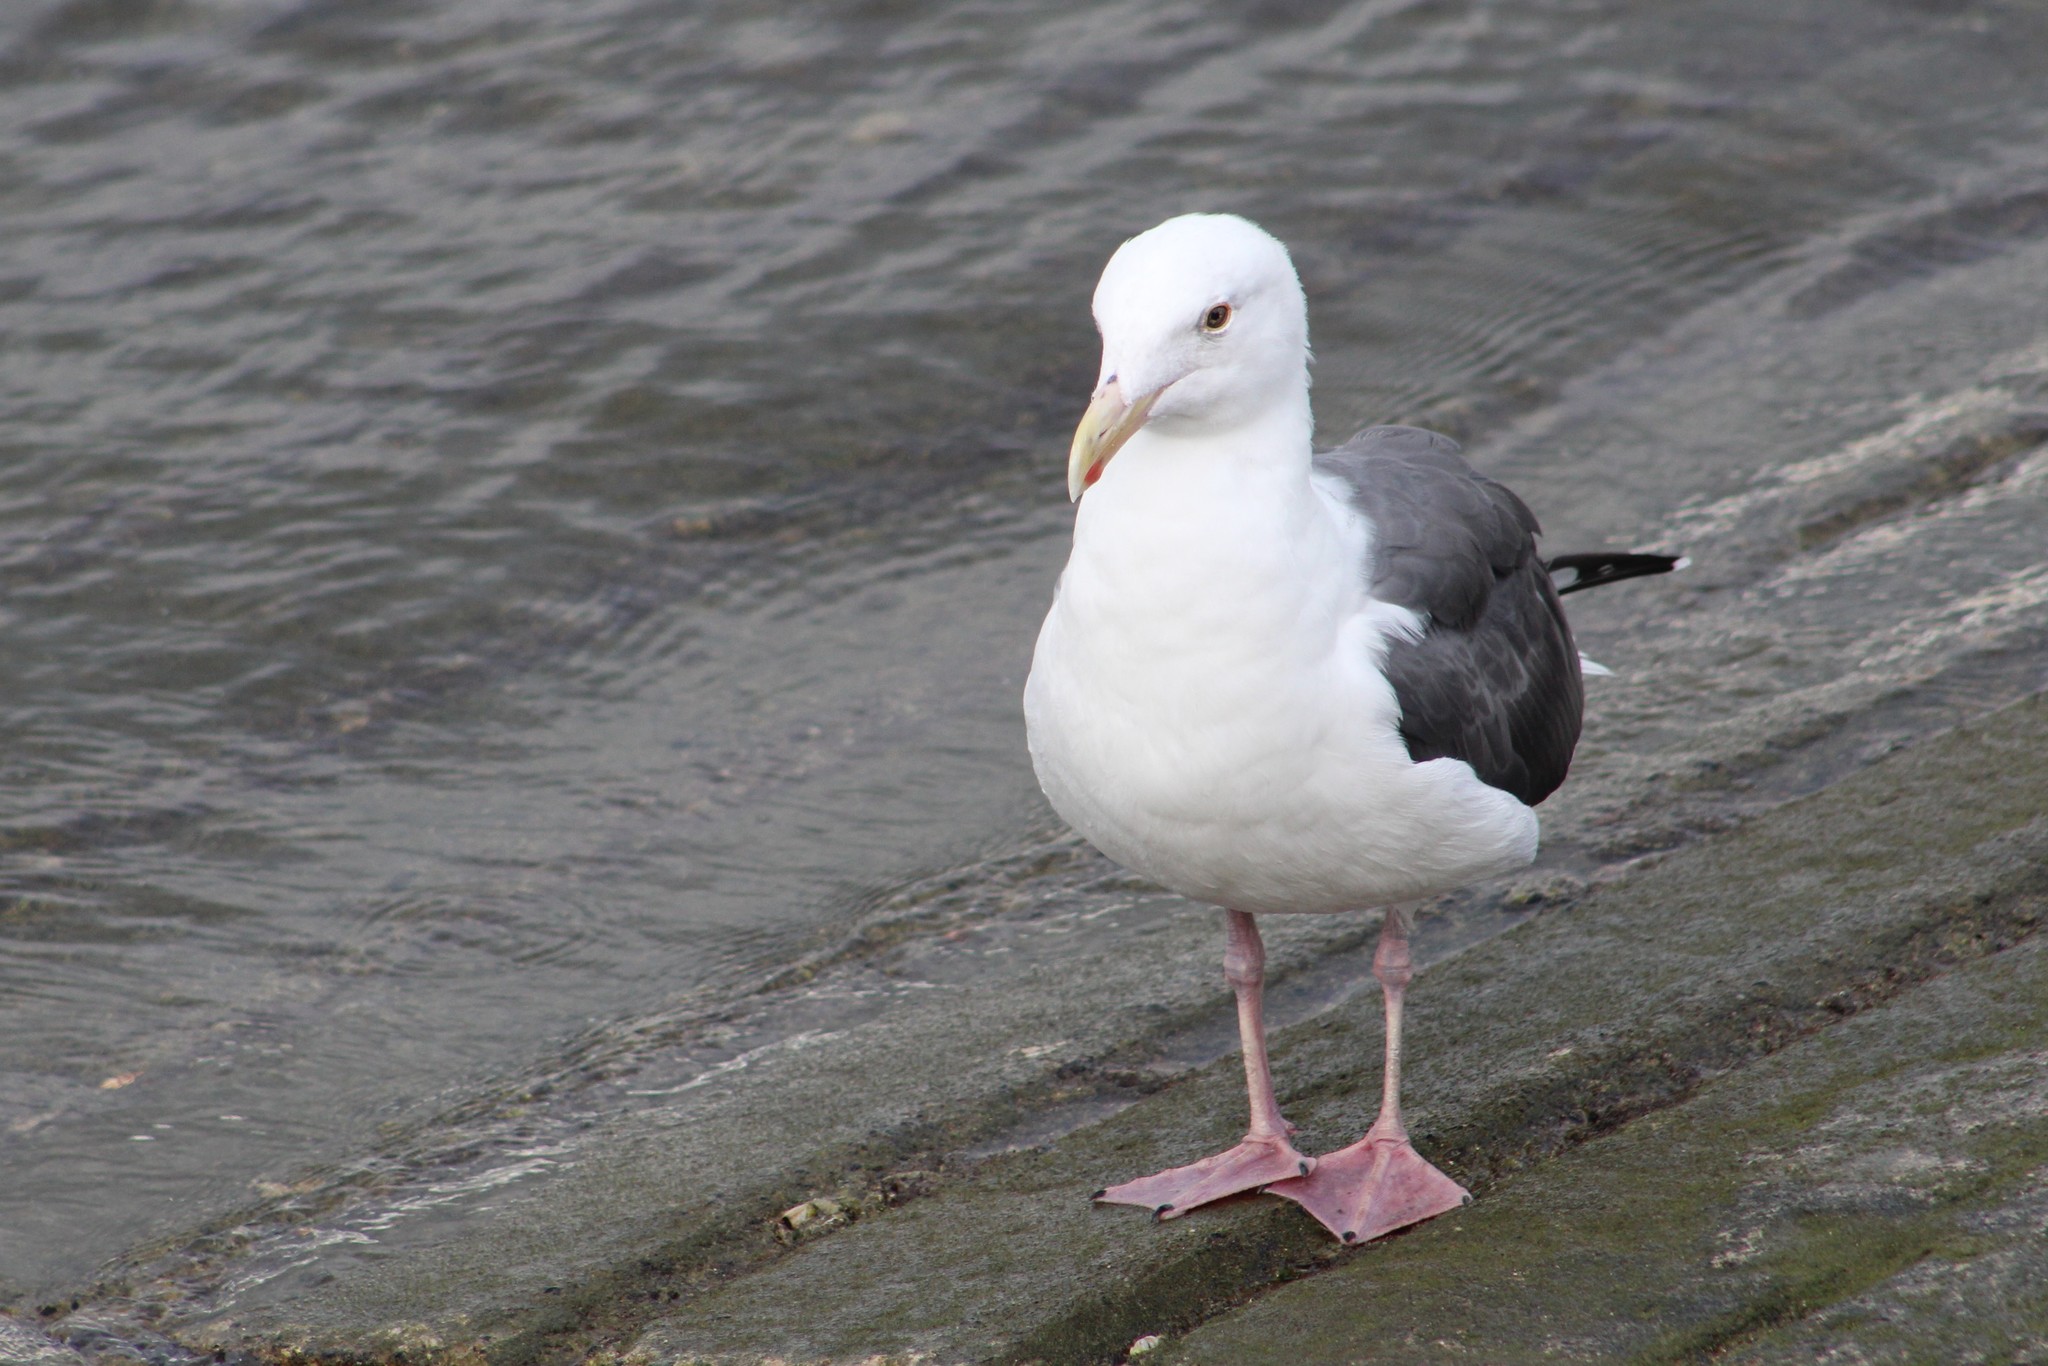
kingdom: Animalia
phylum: Chordata
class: Aves
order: Charadriiformes
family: Laridae
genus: Larus
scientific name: Larus occidentalis
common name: Western gull
